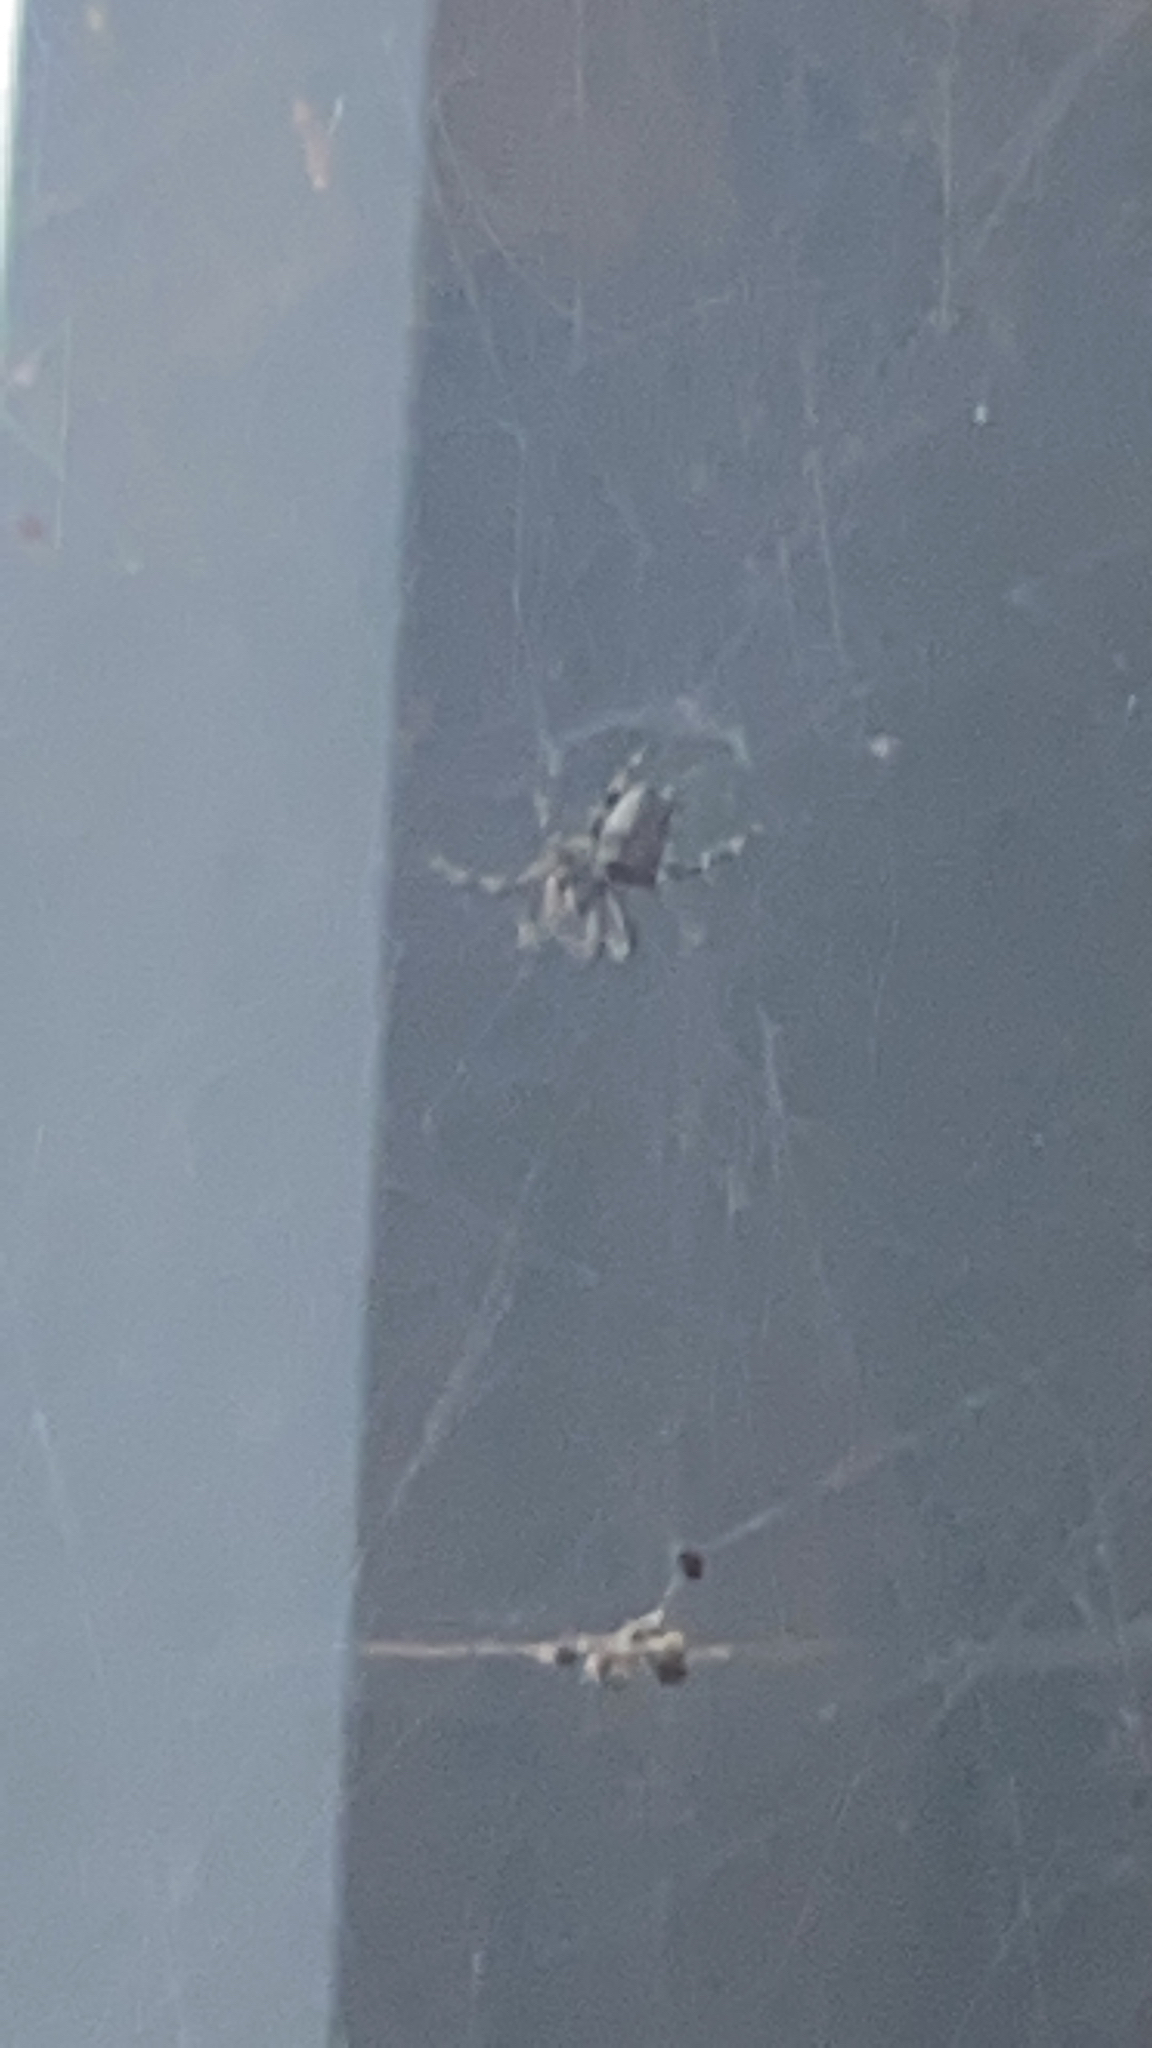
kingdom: Animalia
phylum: Arthropoda
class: Arachnida
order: Araneae
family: Araneidae
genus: Cyrtophora
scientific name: Cyrtophora citricola
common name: Orb weavers
